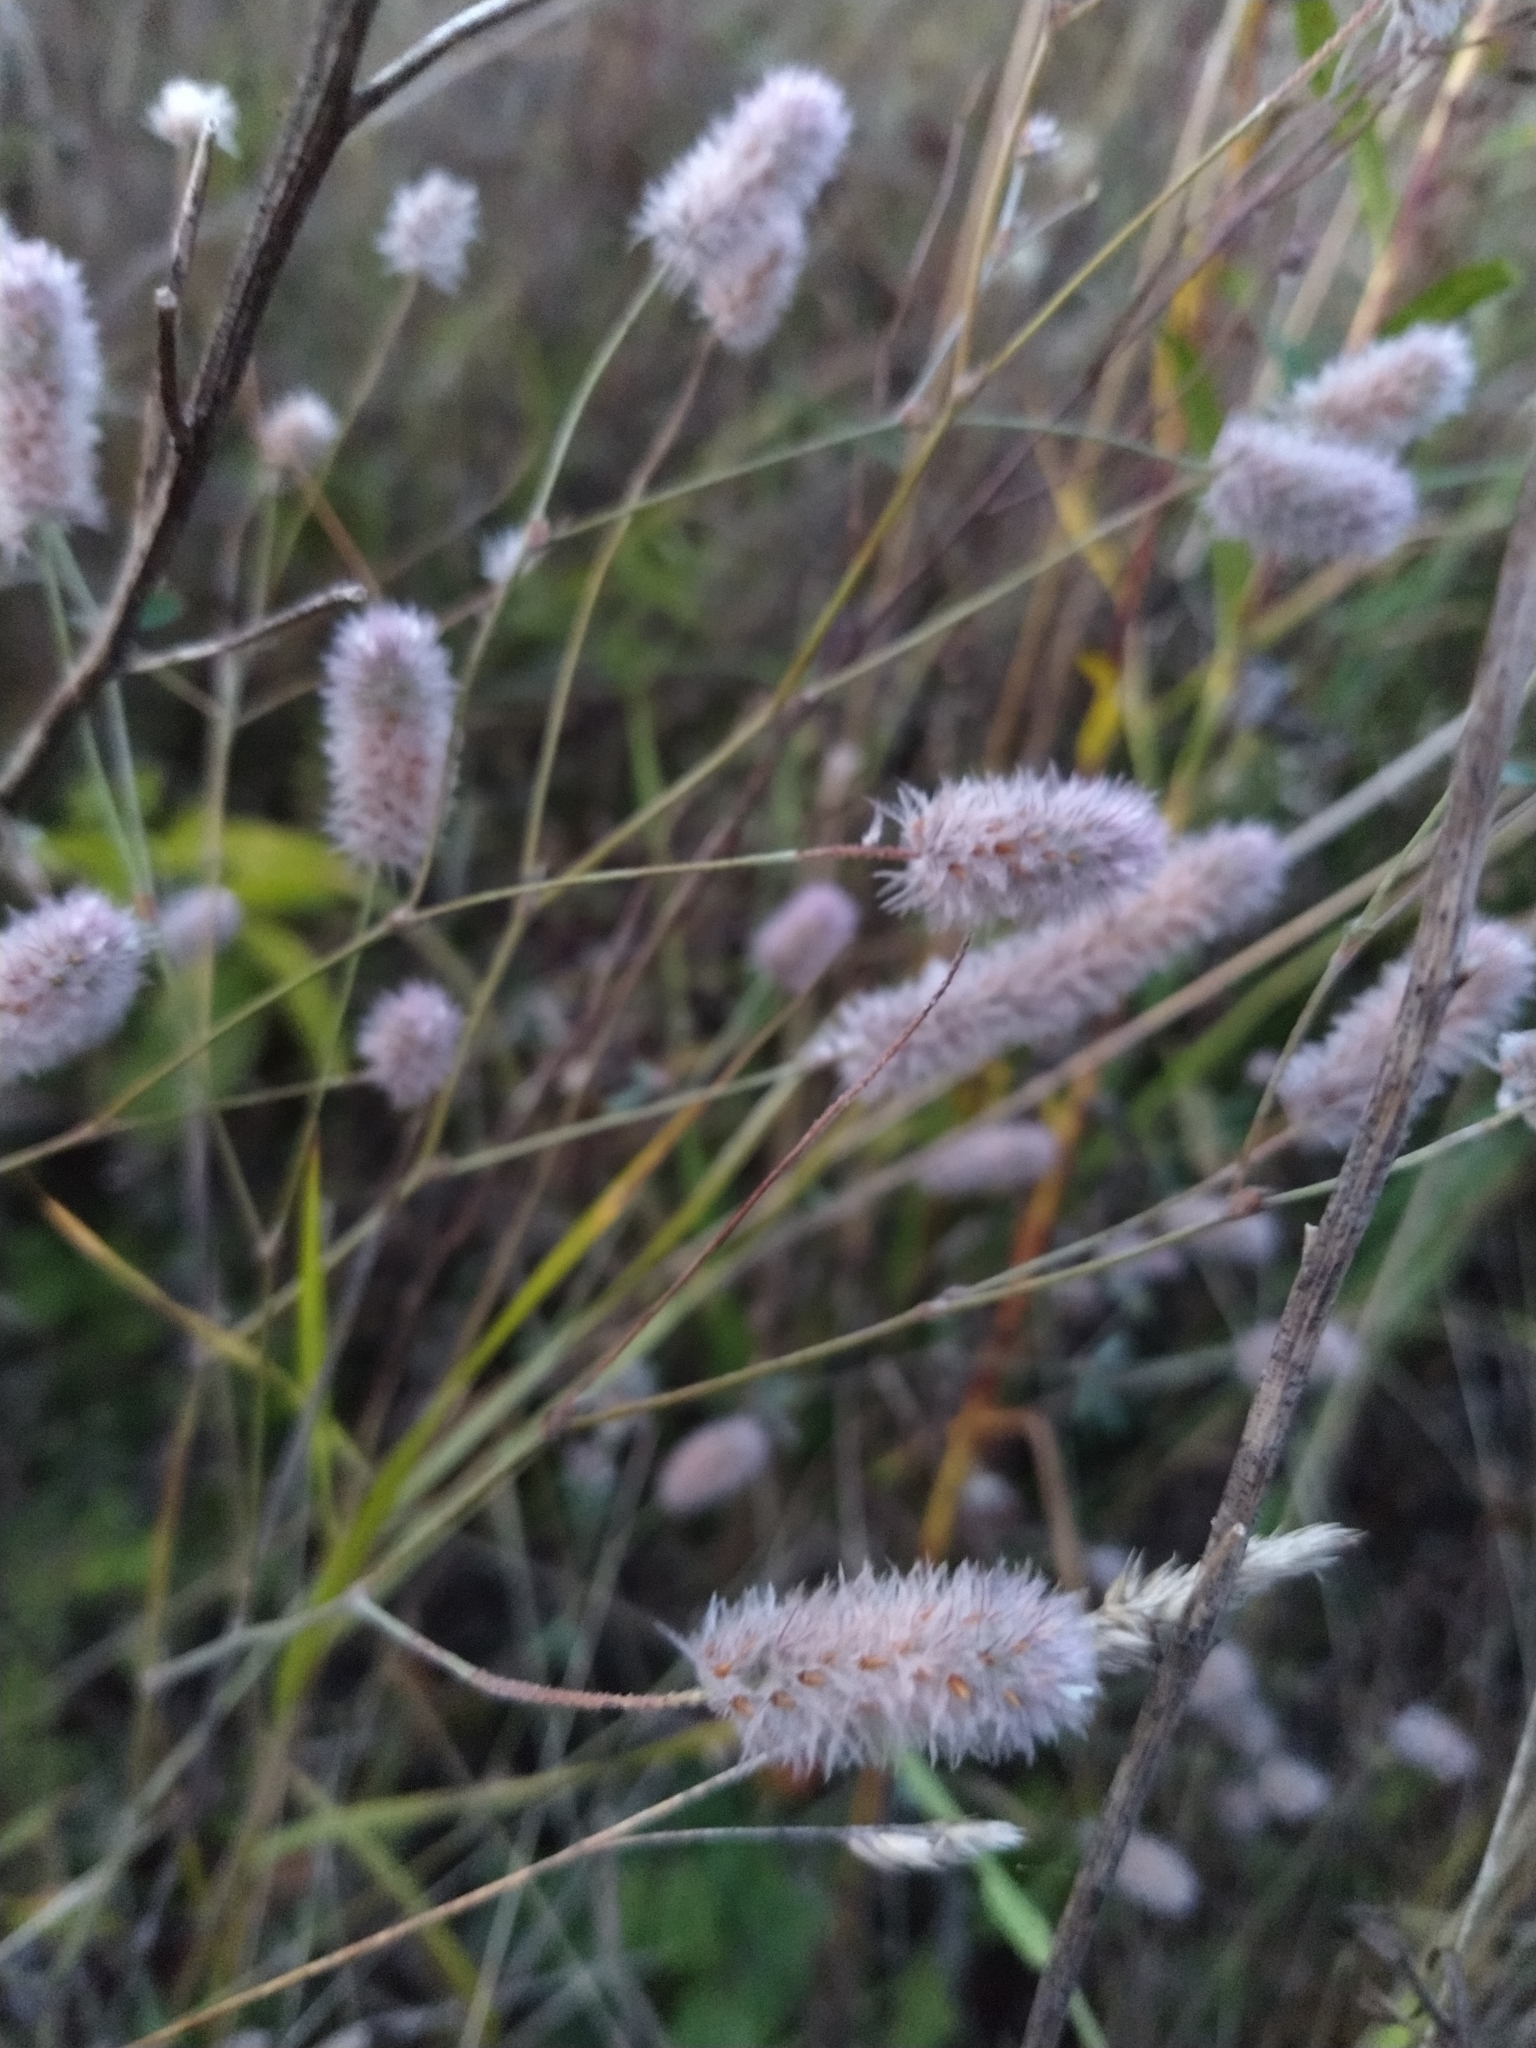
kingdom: Plantae
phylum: Tracheophyta
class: Magnoliopsida
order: Fabales
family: Fabaceae
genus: Trifolium
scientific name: Trifolium arvense
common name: Hare's-foot clover
